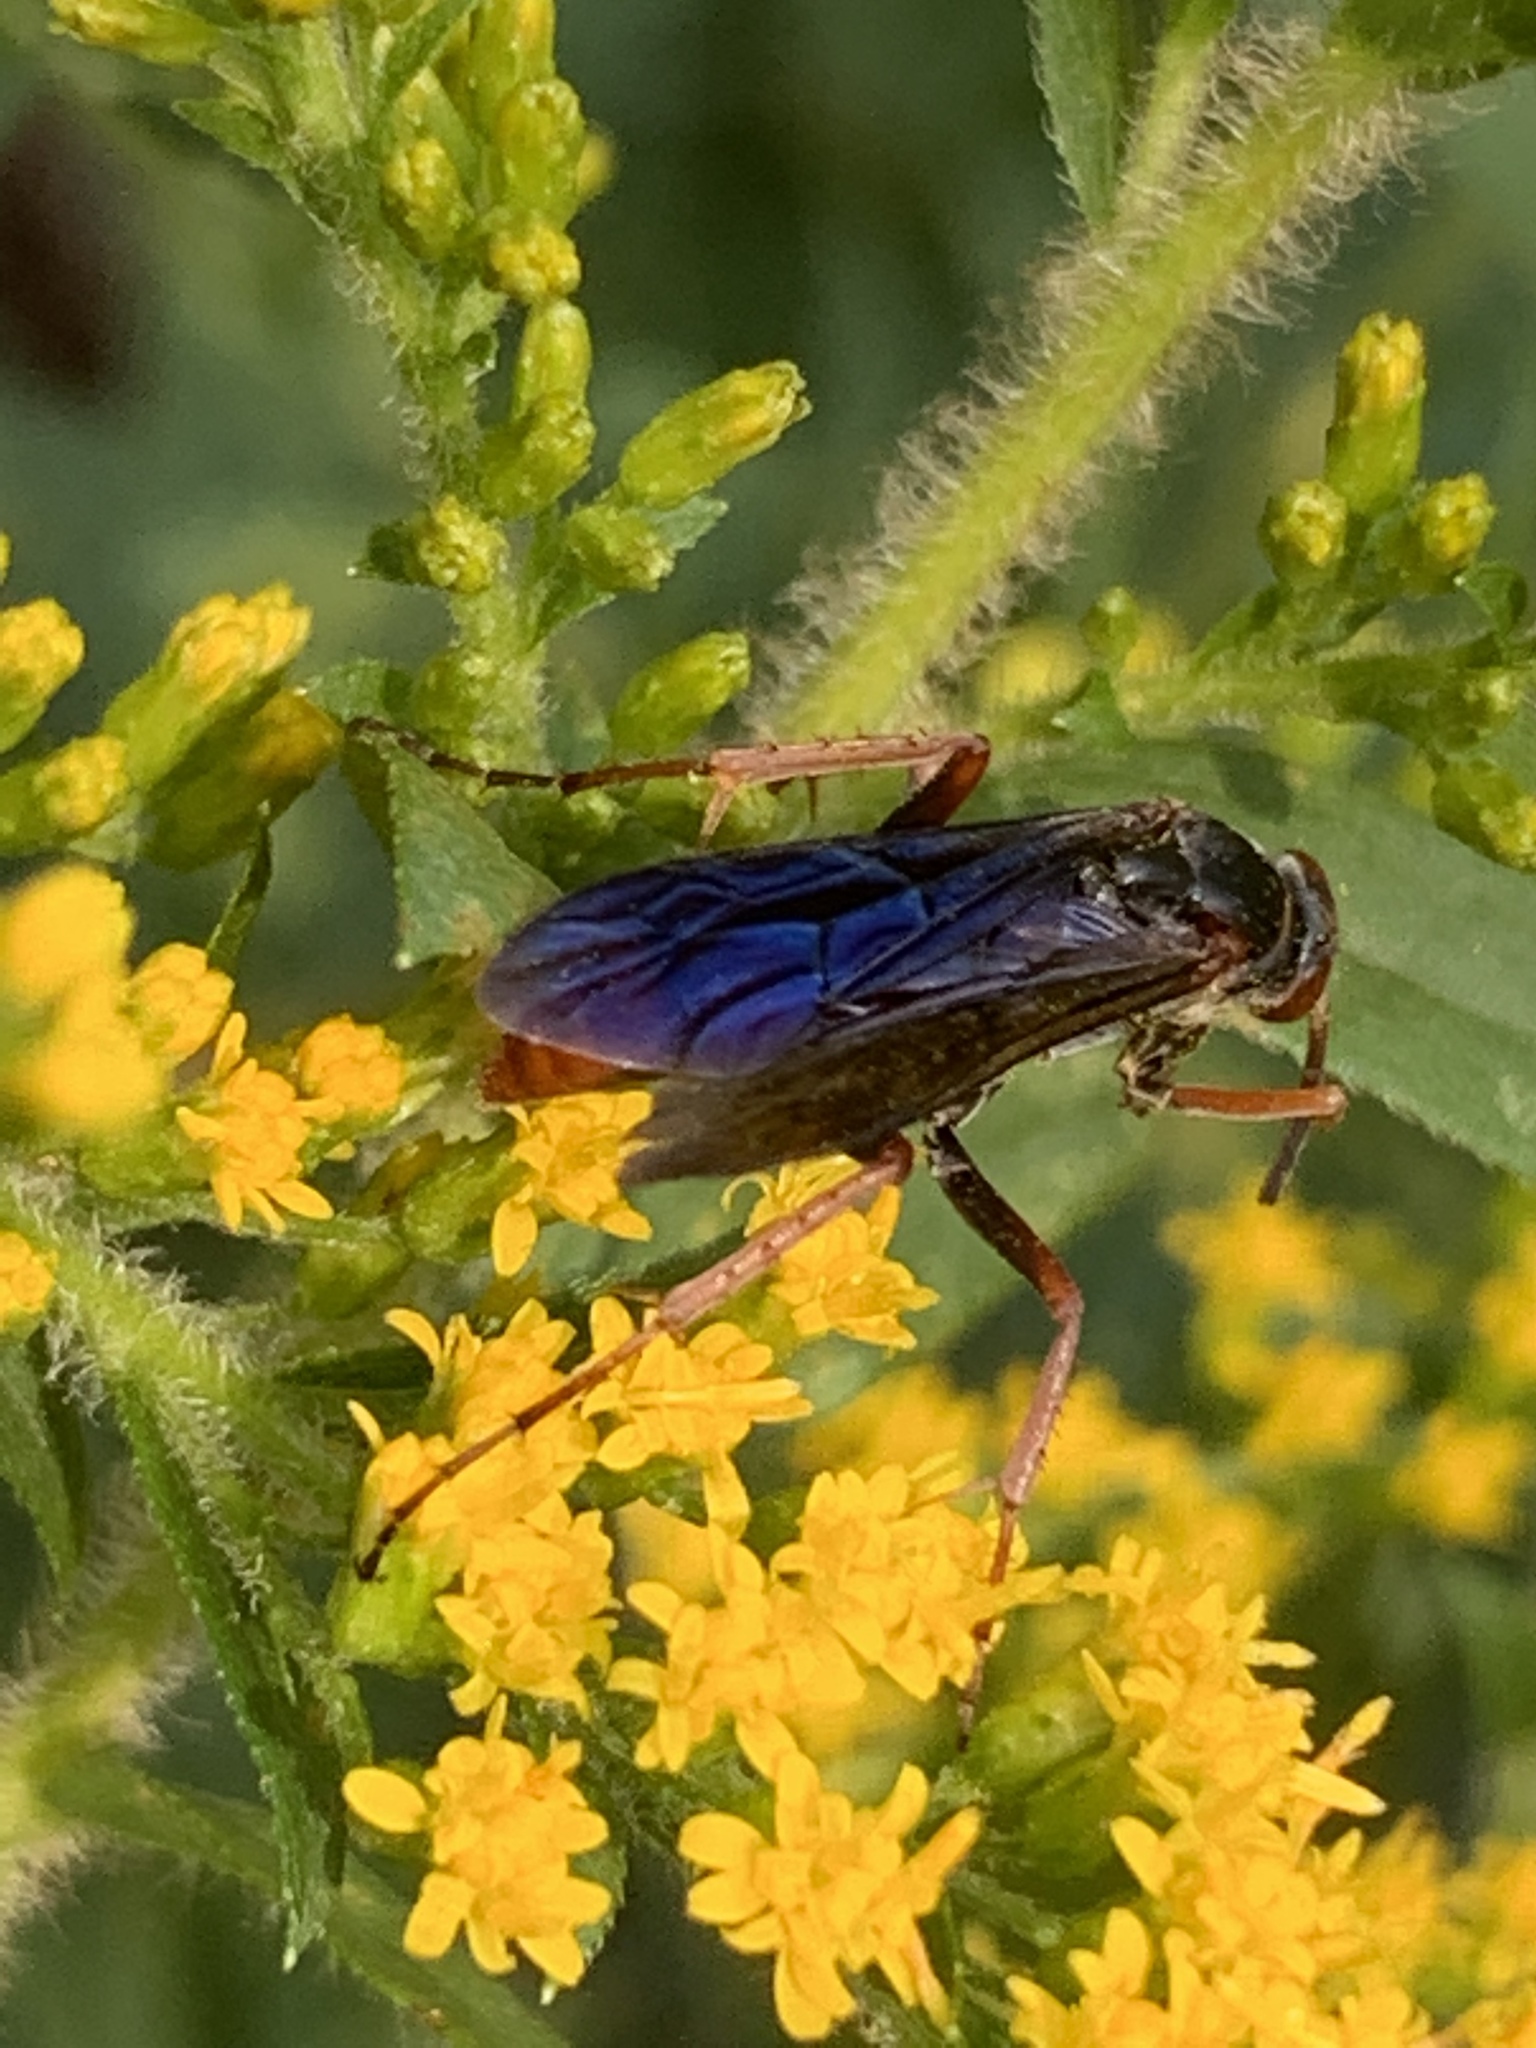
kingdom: Animalia
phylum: Arthropoda
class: Insecta
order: Hymenoptera
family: Pompilidae
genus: Tachypompilus
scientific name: Tachypompilus ferrugineus
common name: Rusty spider wasp
